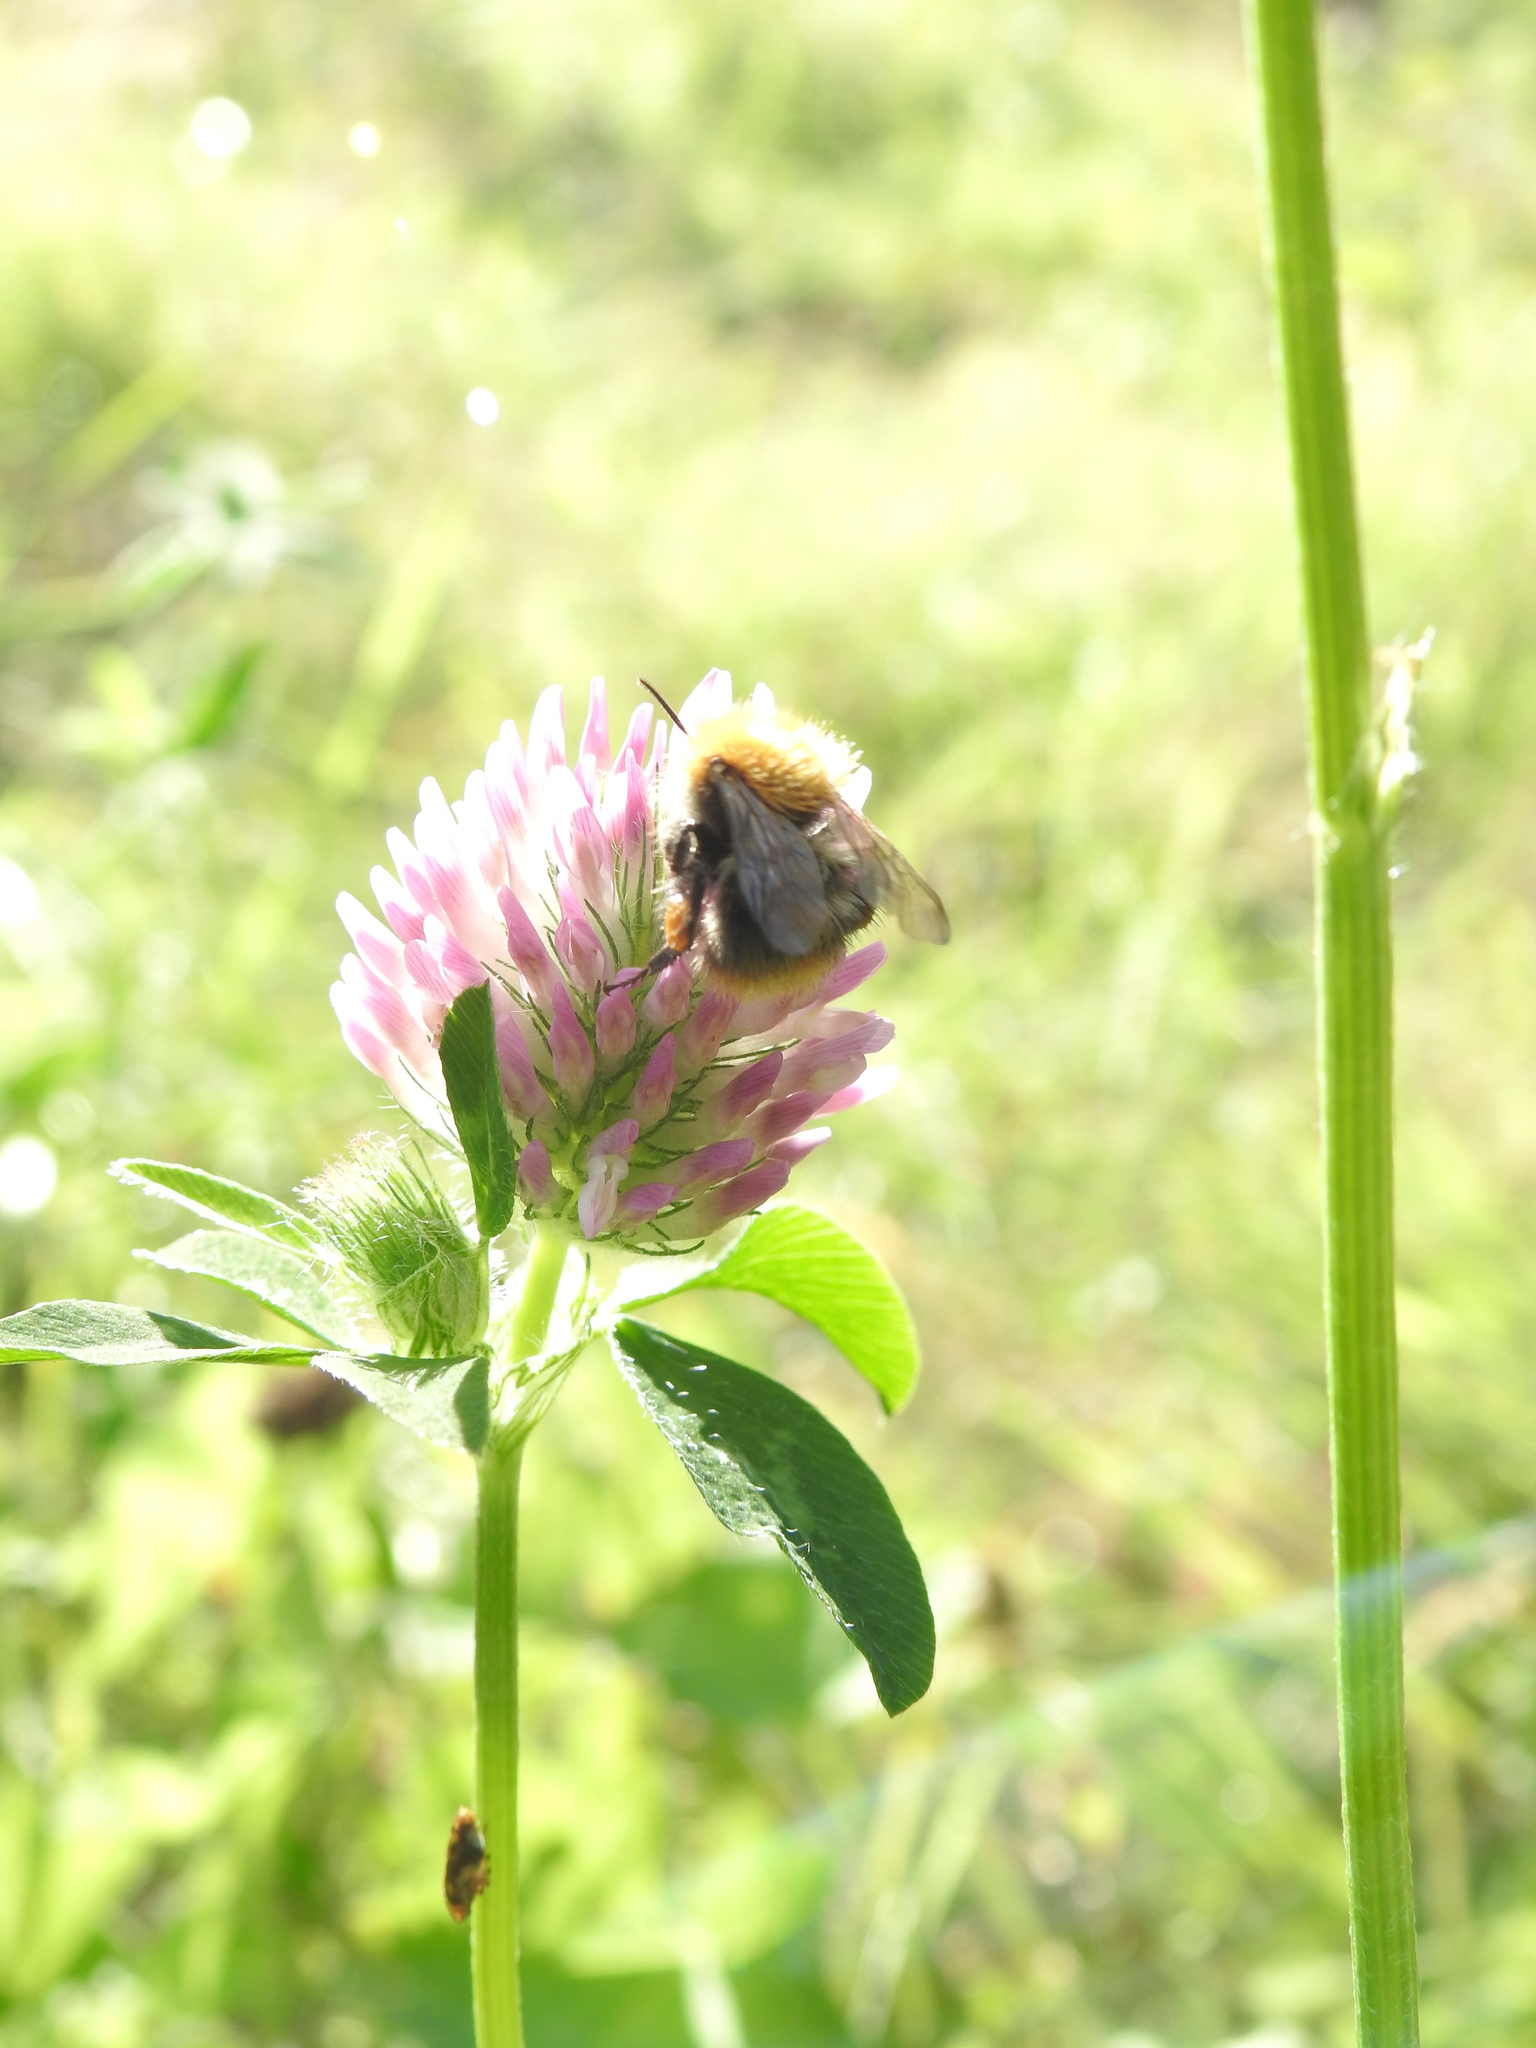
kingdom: Animalia
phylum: Arthropoda
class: Insecta
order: Hymenoptera
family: Apidae
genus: Bombus
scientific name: Bombus pascuorum
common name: Common carder bee
